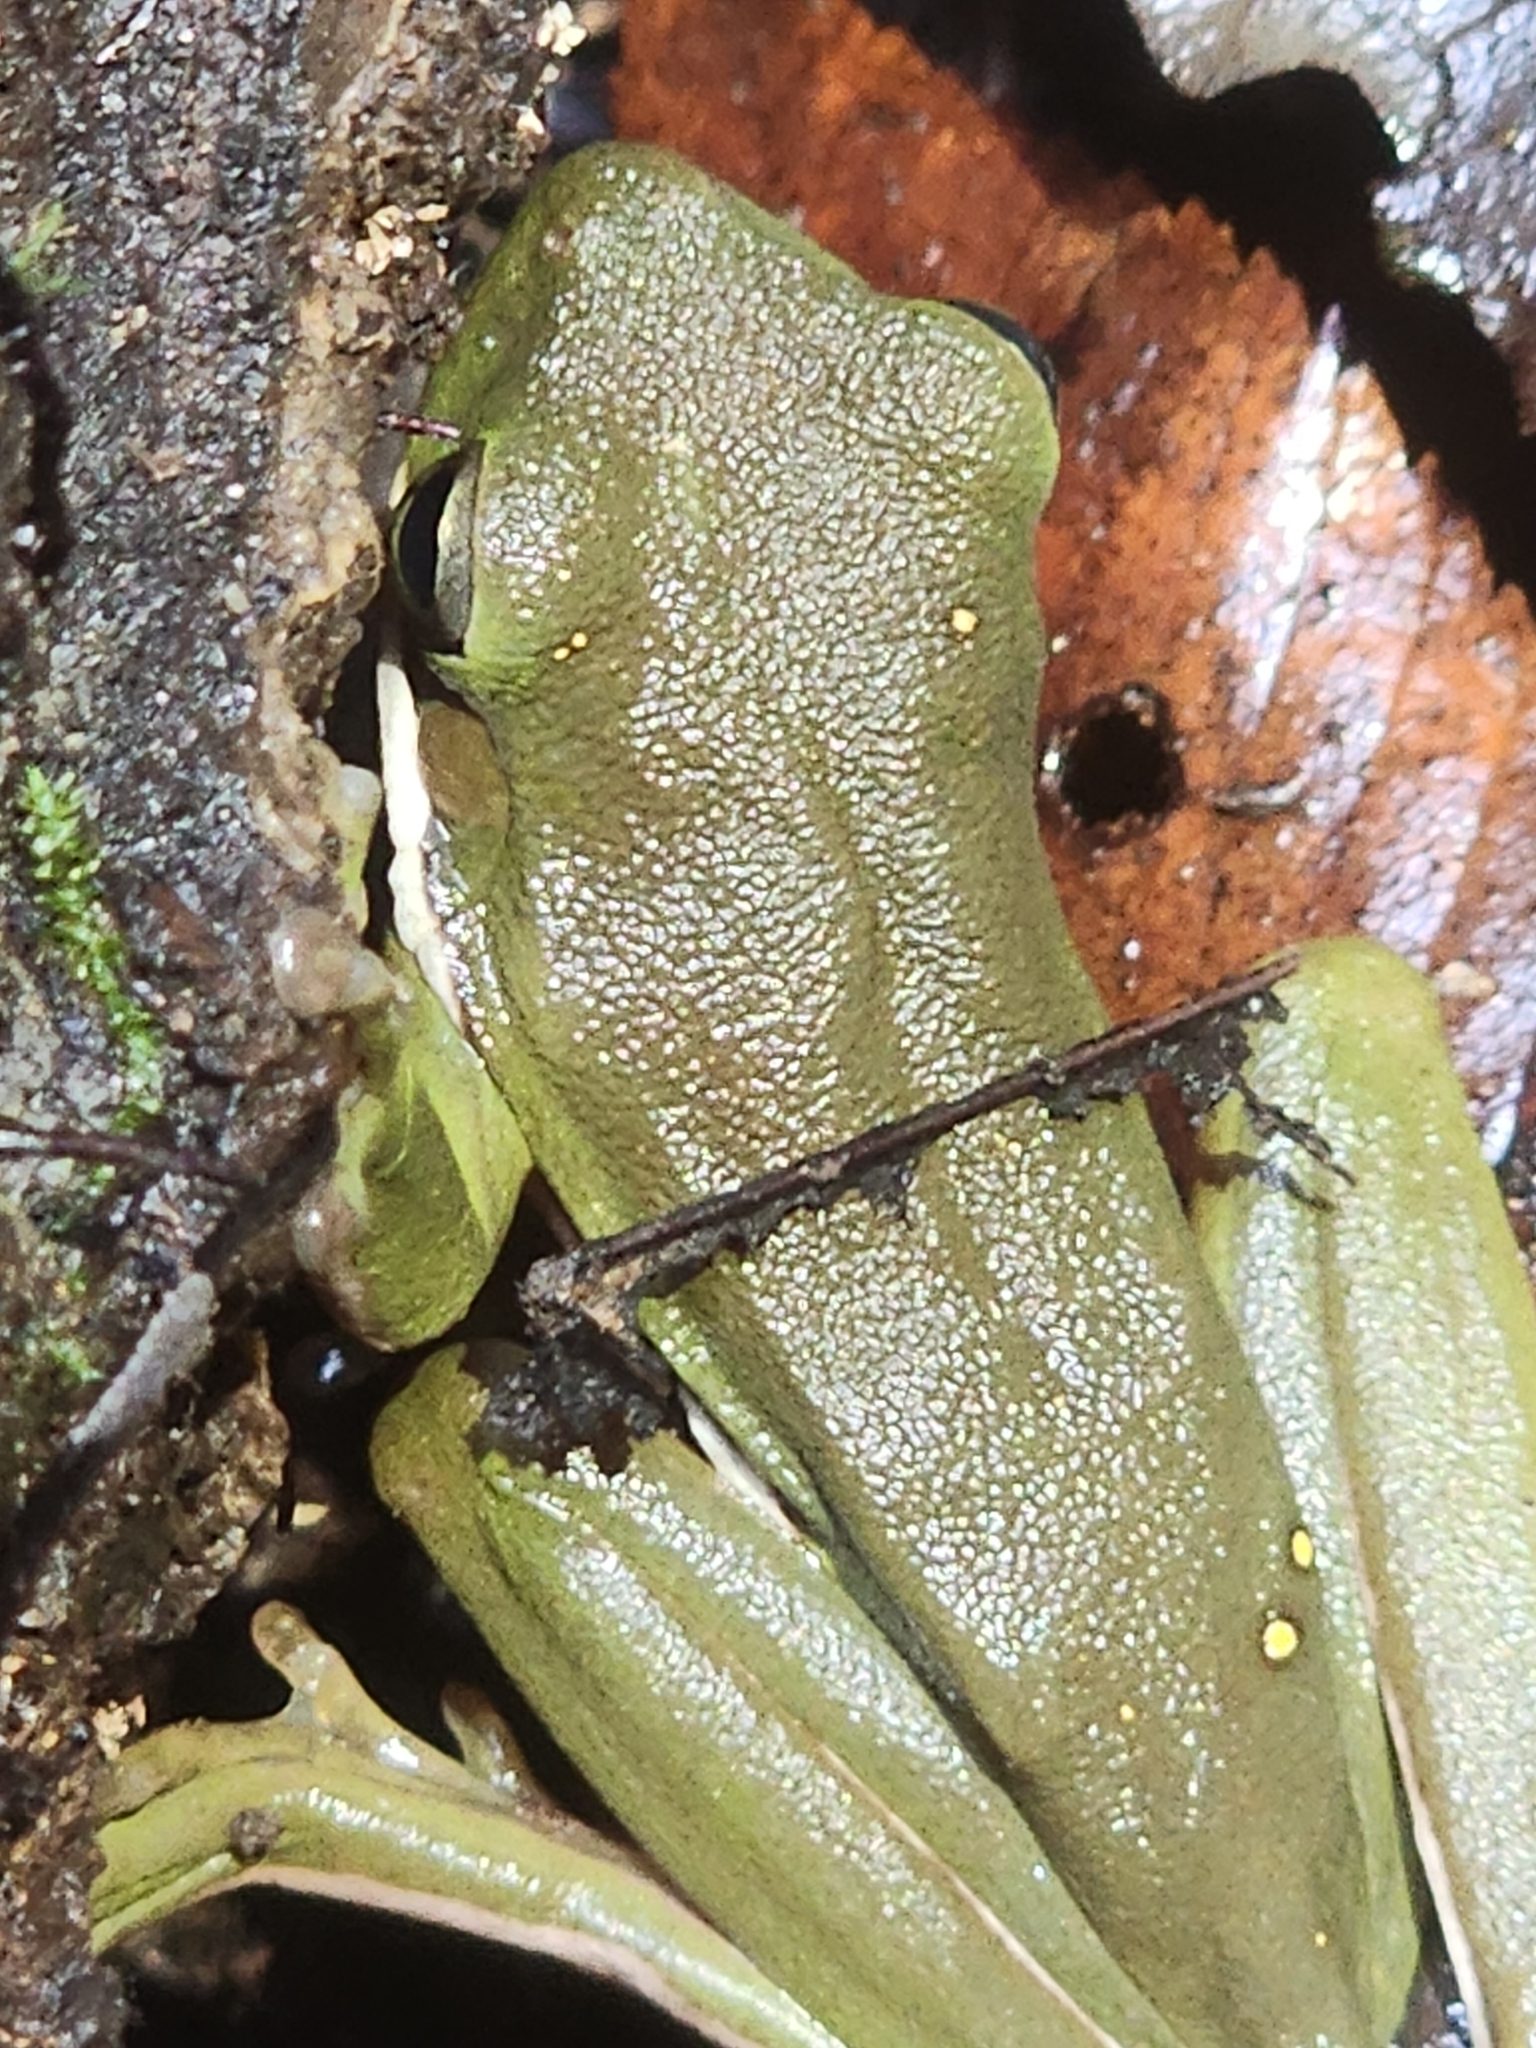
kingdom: Animalia
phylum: Chordata
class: Amphibia
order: Anura
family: Hylidae
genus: Dryophytes
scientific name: Dryophytes cinereus
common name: Green treefrog
